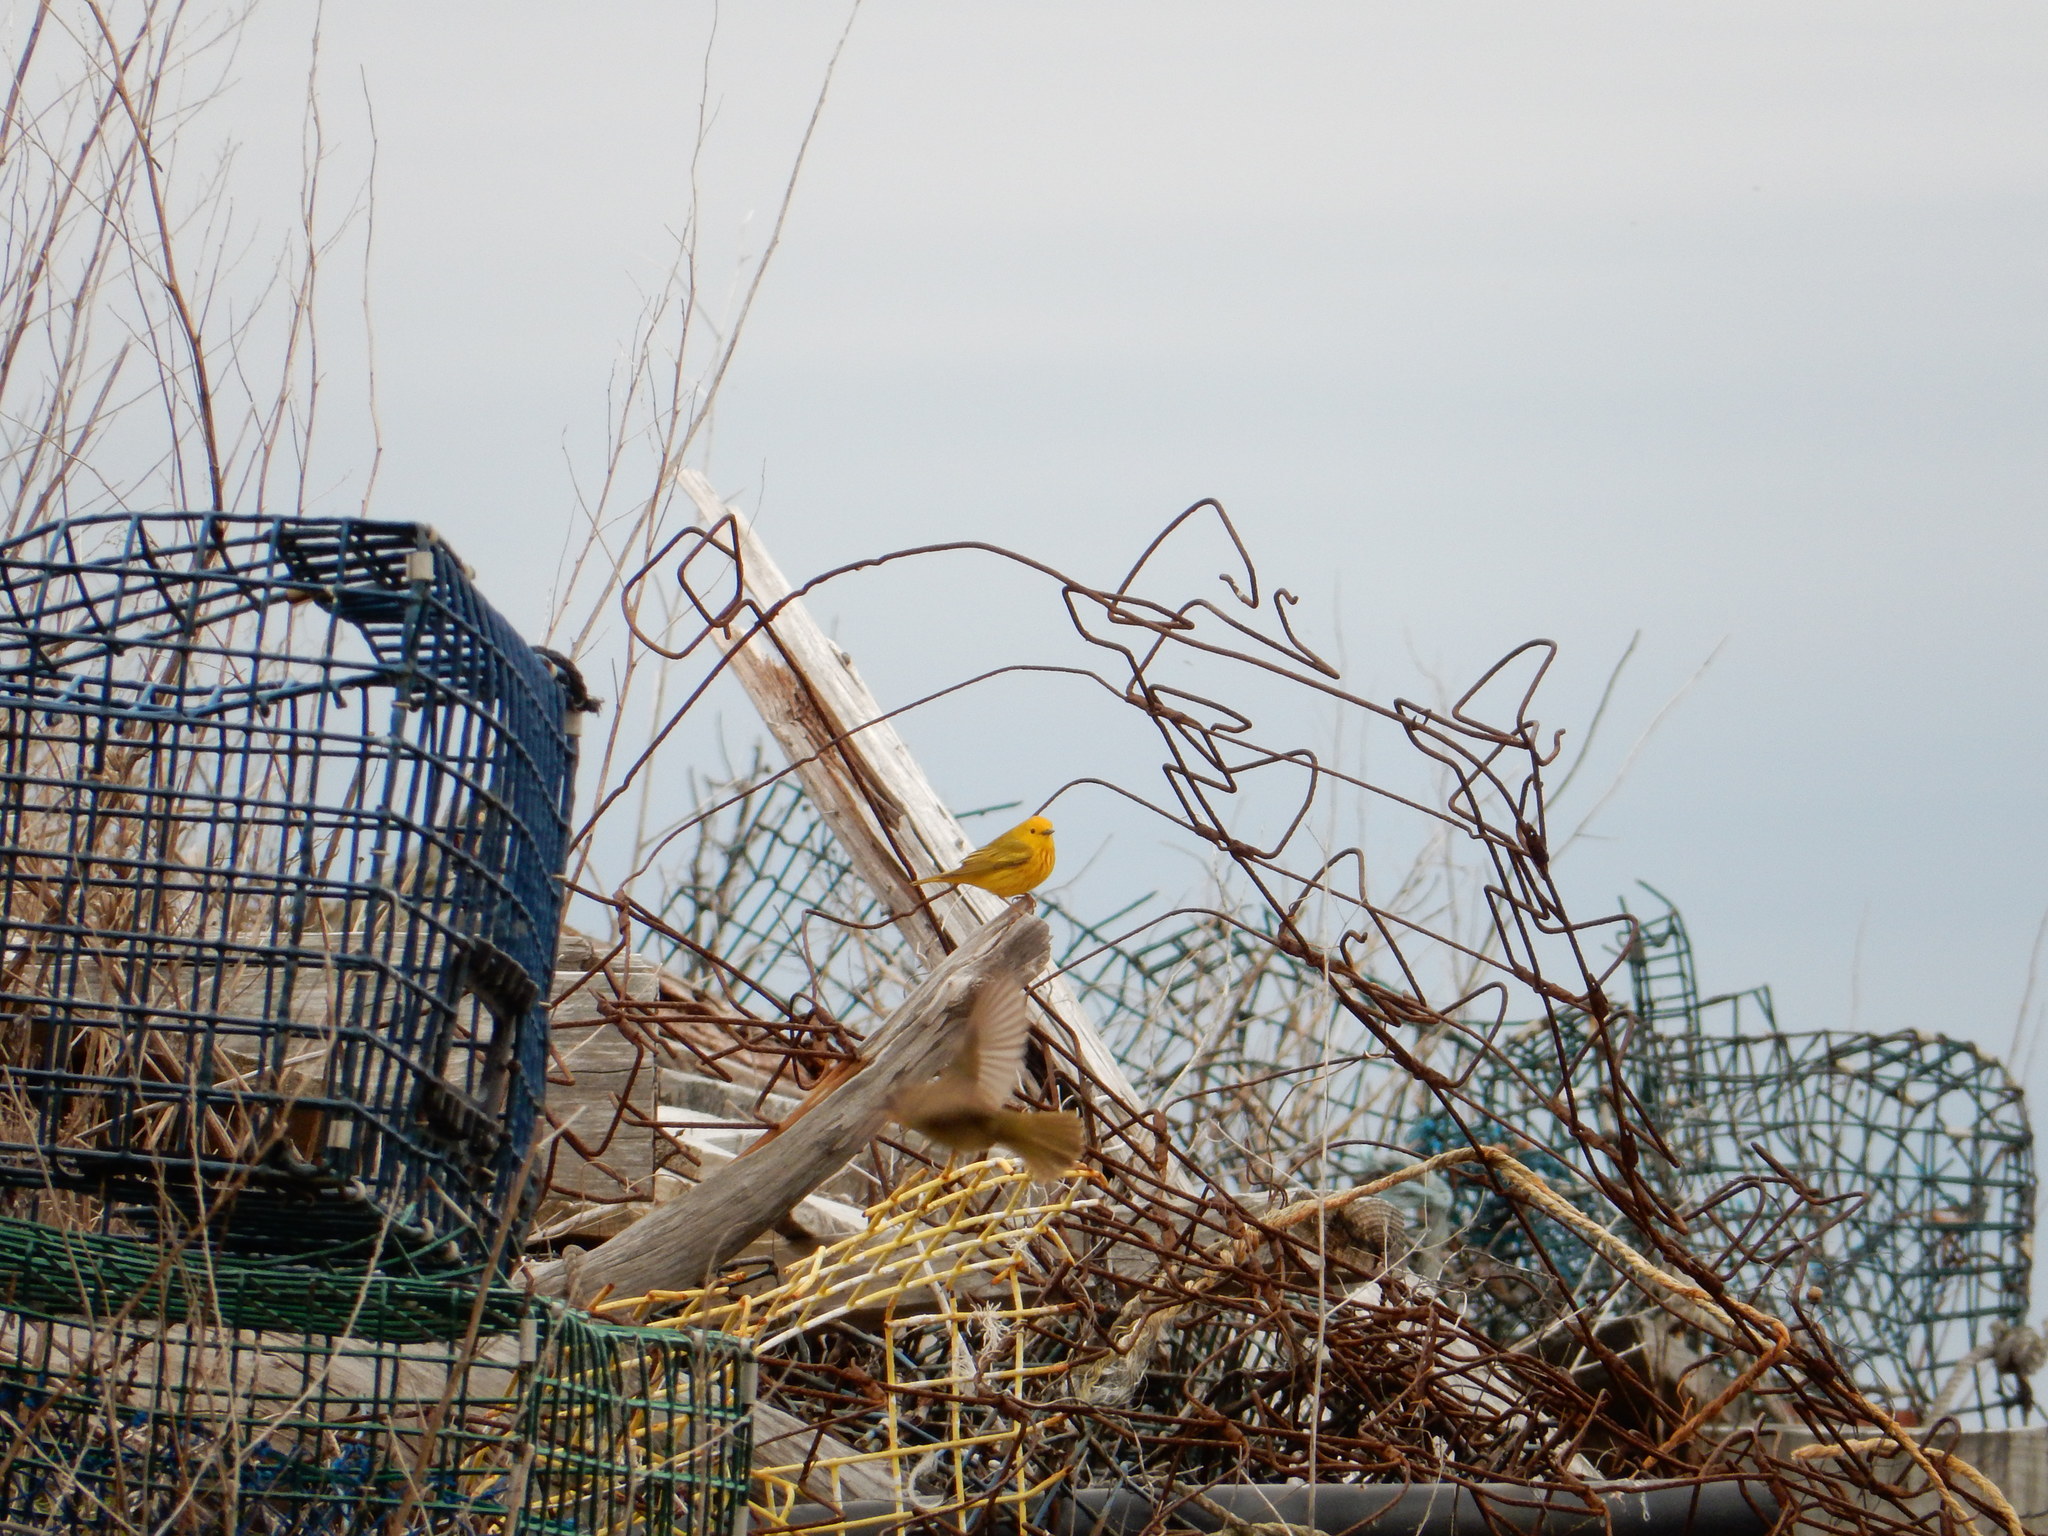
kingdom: Animalia
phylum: Chordata
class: Aves
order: Passeriformes
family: Parulidae
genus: Setophaga
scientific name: Setophaga petechia
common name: Yellow warbler
